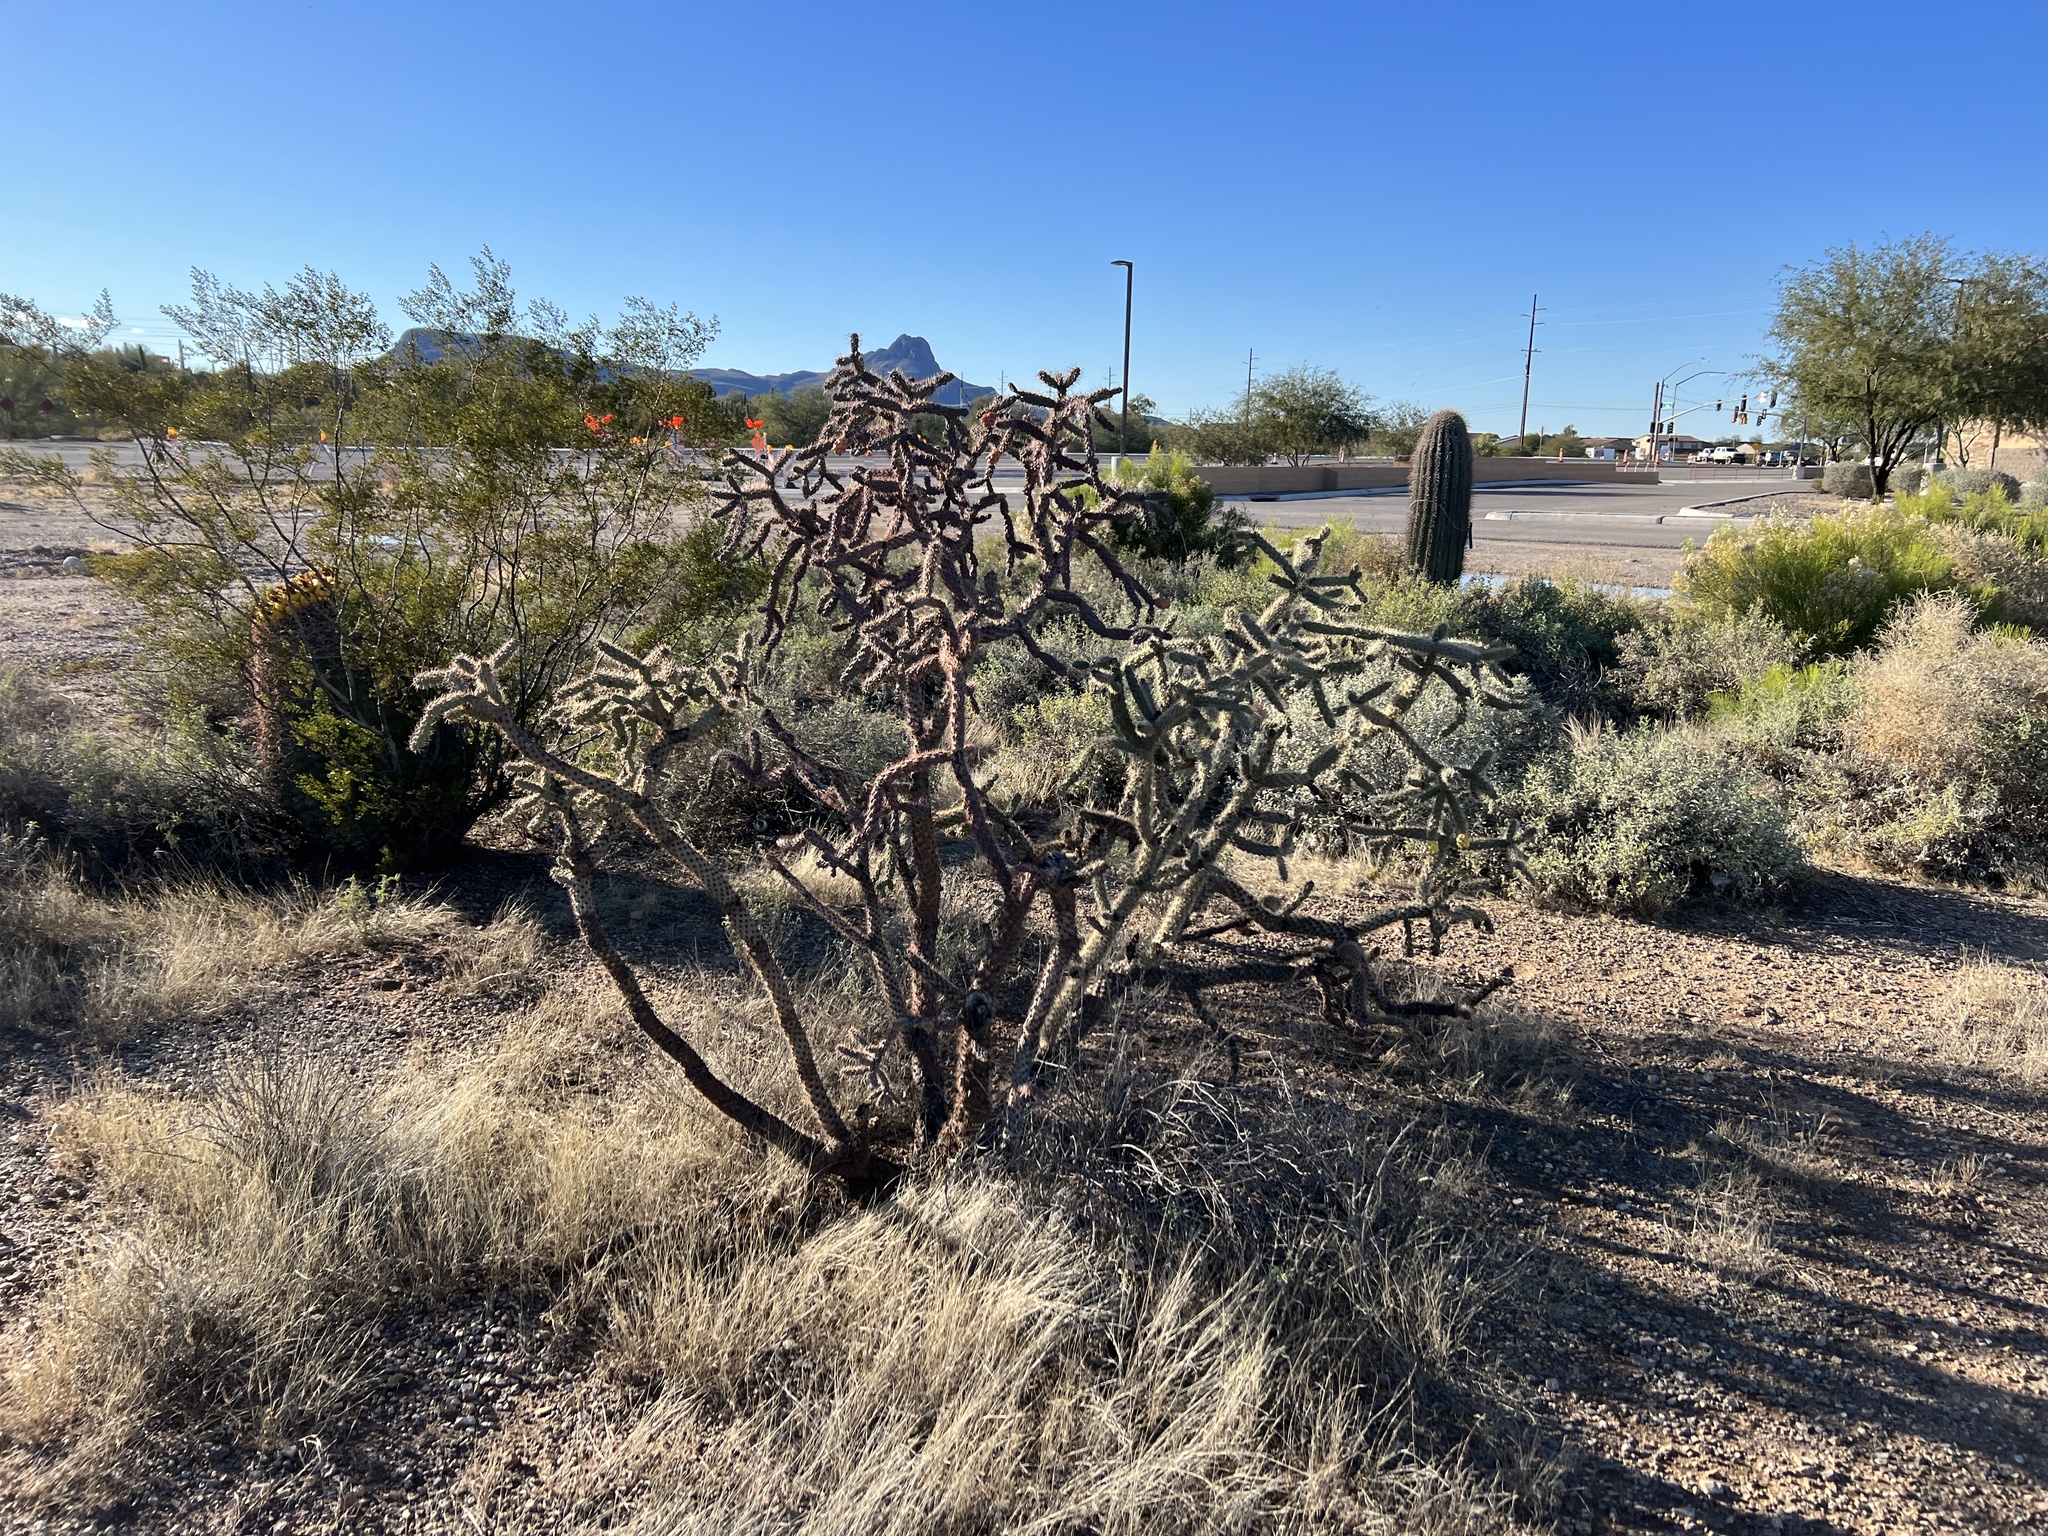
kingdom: Plantae
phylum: Tracheophyta
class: Magnoliopsida
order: Caryophyllales
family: Cactaceae
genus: Cylindropuntia
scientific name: Cylindropuntia thurberi
